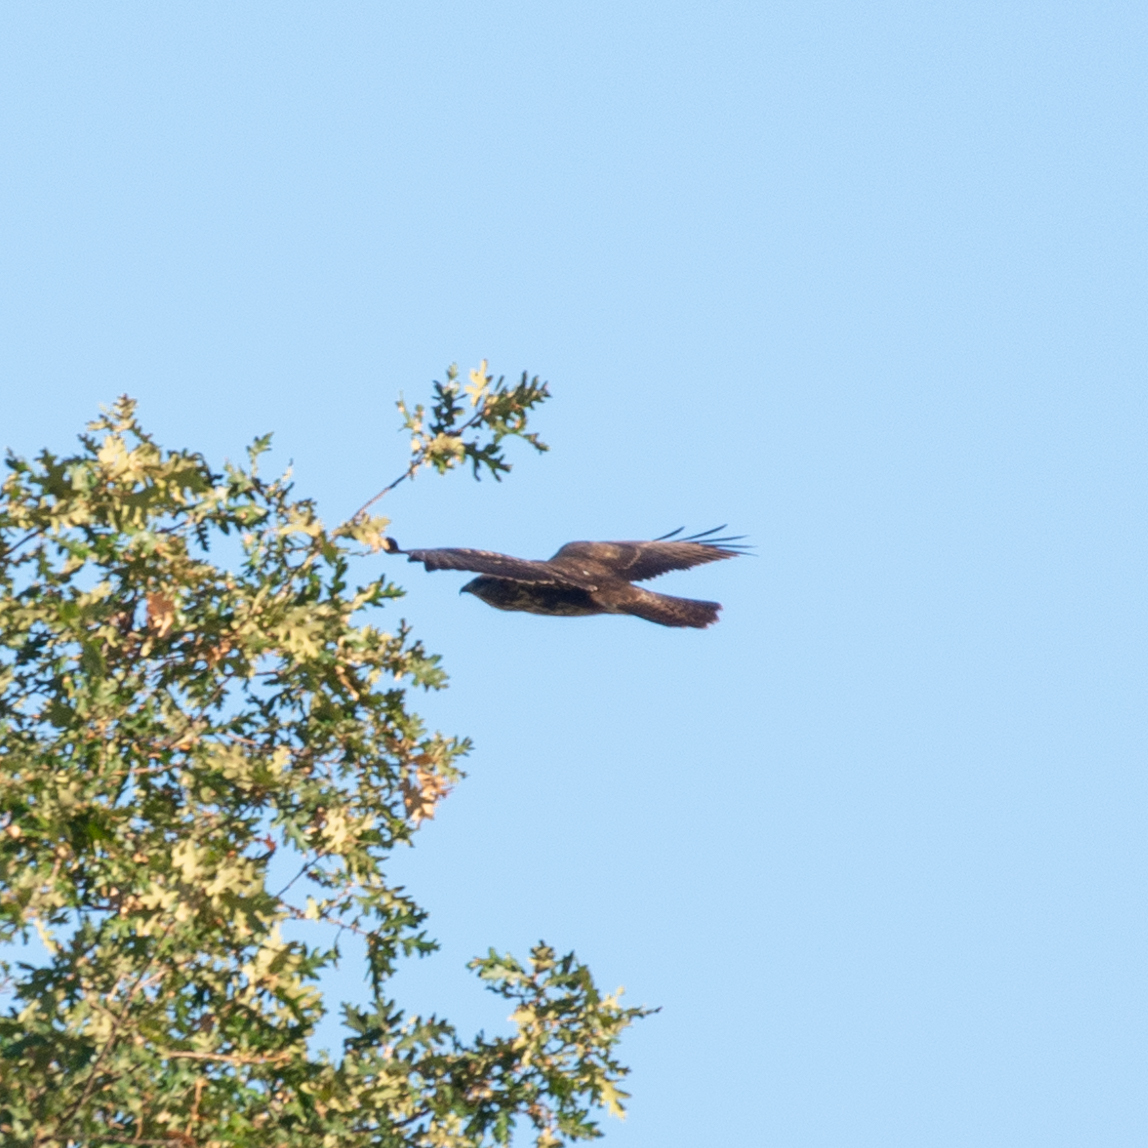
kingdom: Animalia
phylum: Chordata
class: Aves
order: Accipitriformes
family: Accipitridae
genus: Buteo
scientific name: Buteo buteo
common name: Common buzzard
